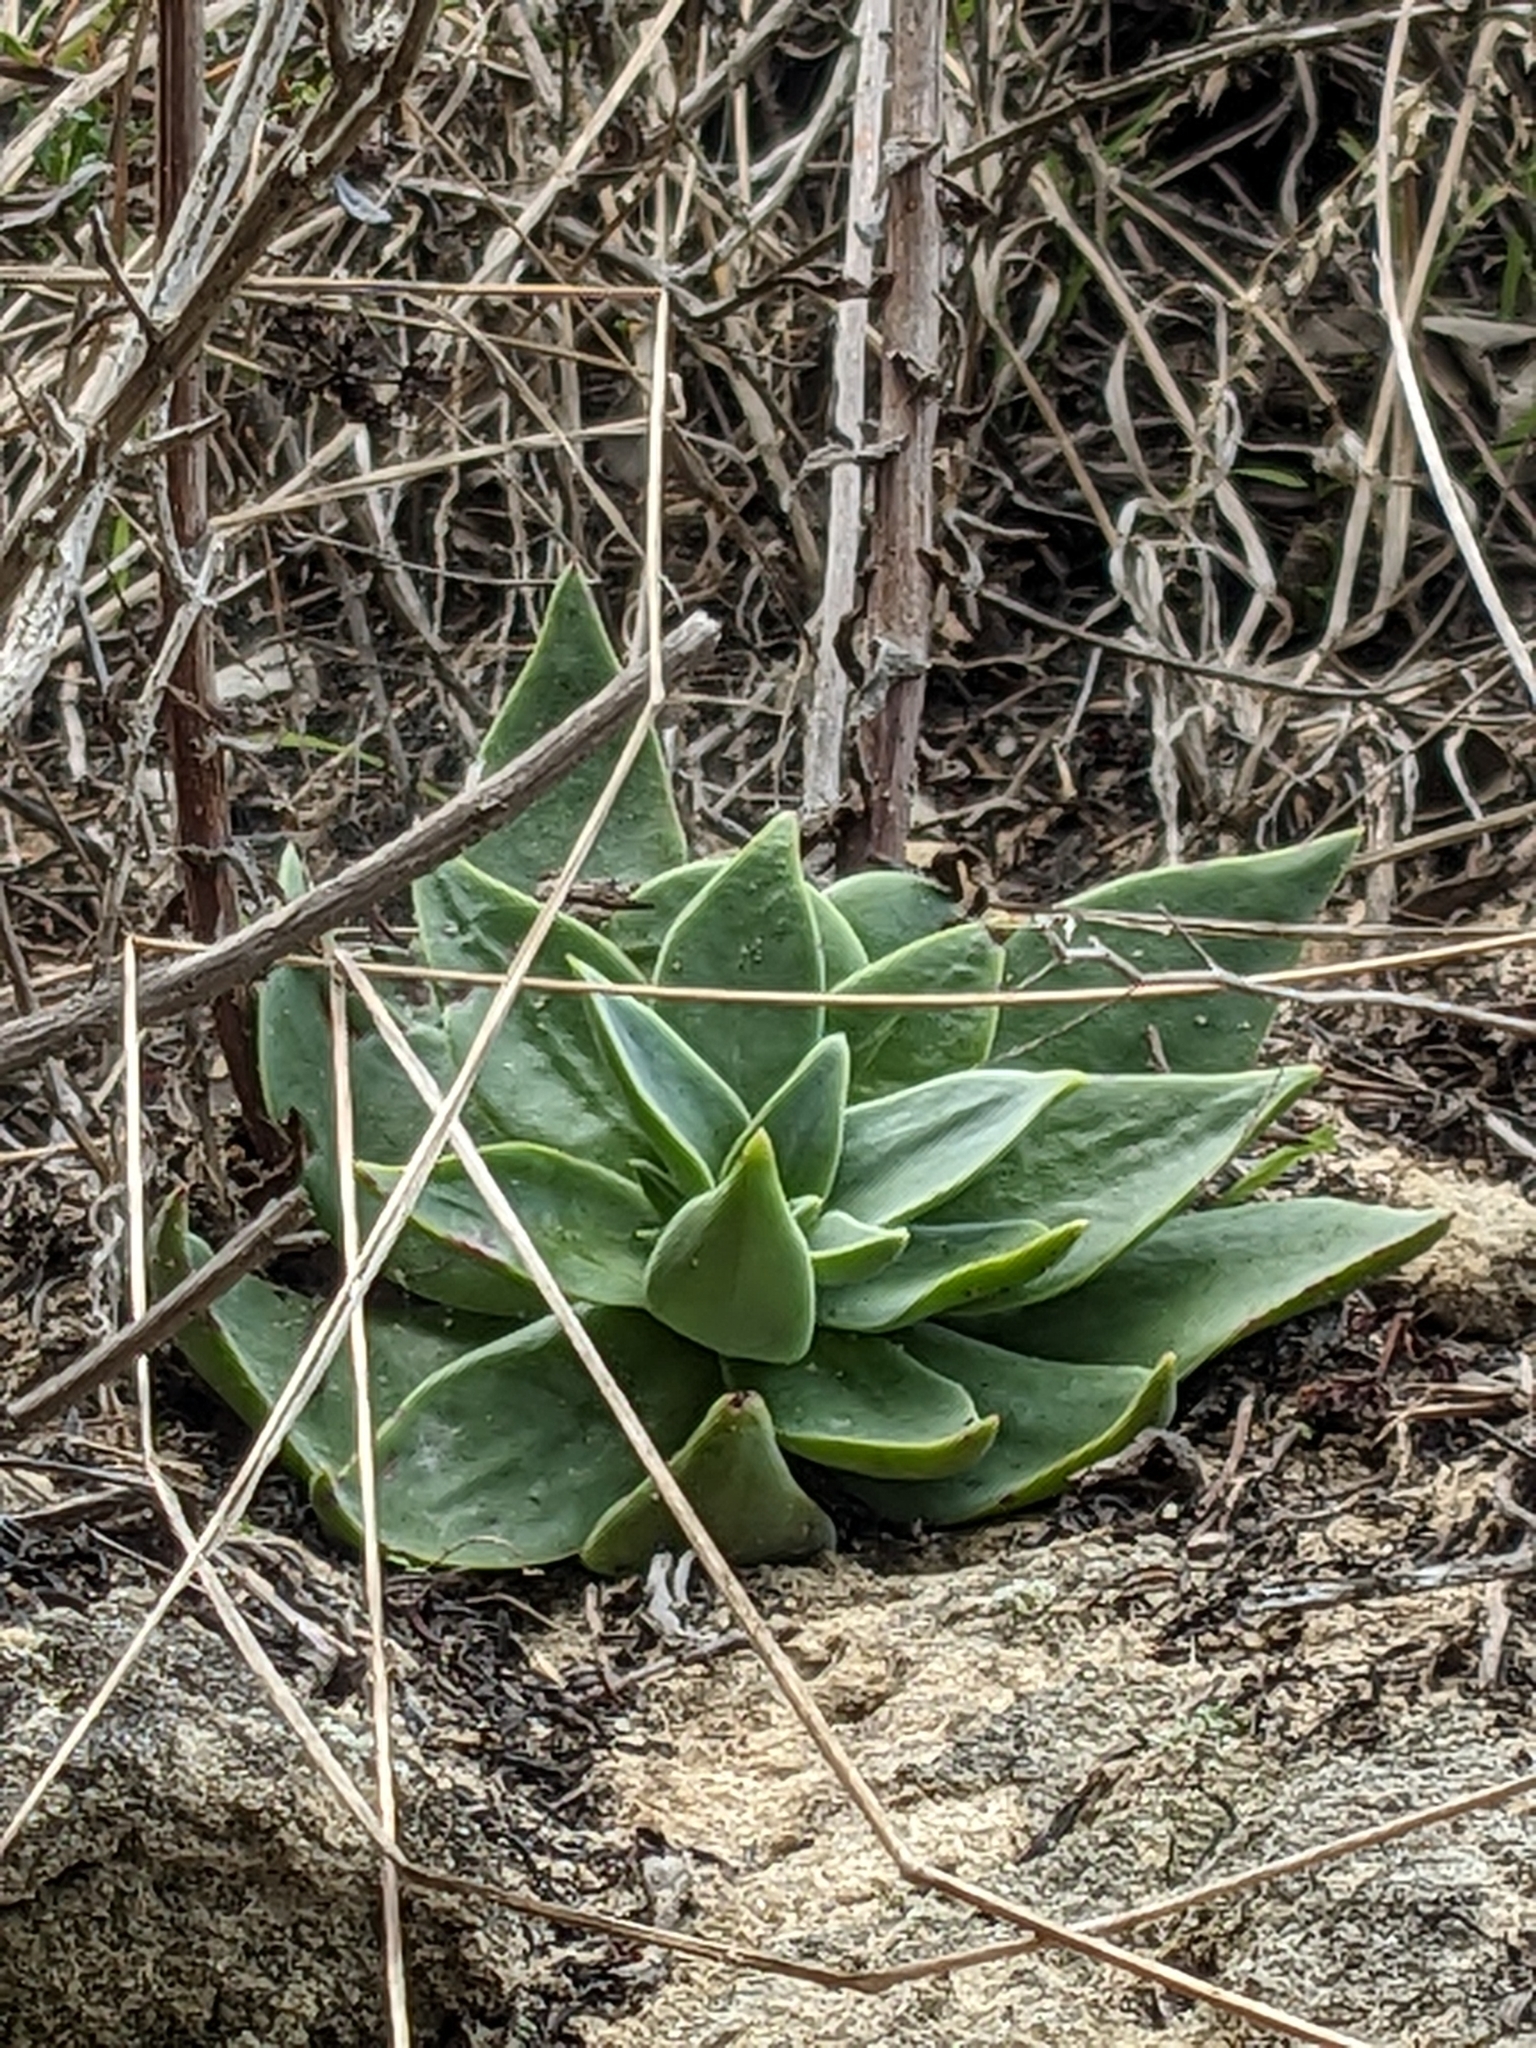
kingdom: Plantae
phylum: Tracheophyta
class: Magnoliopsida
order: Saxifragales
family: Crassulaceae
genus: Dudleya
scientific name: Dudleya lanceolata
